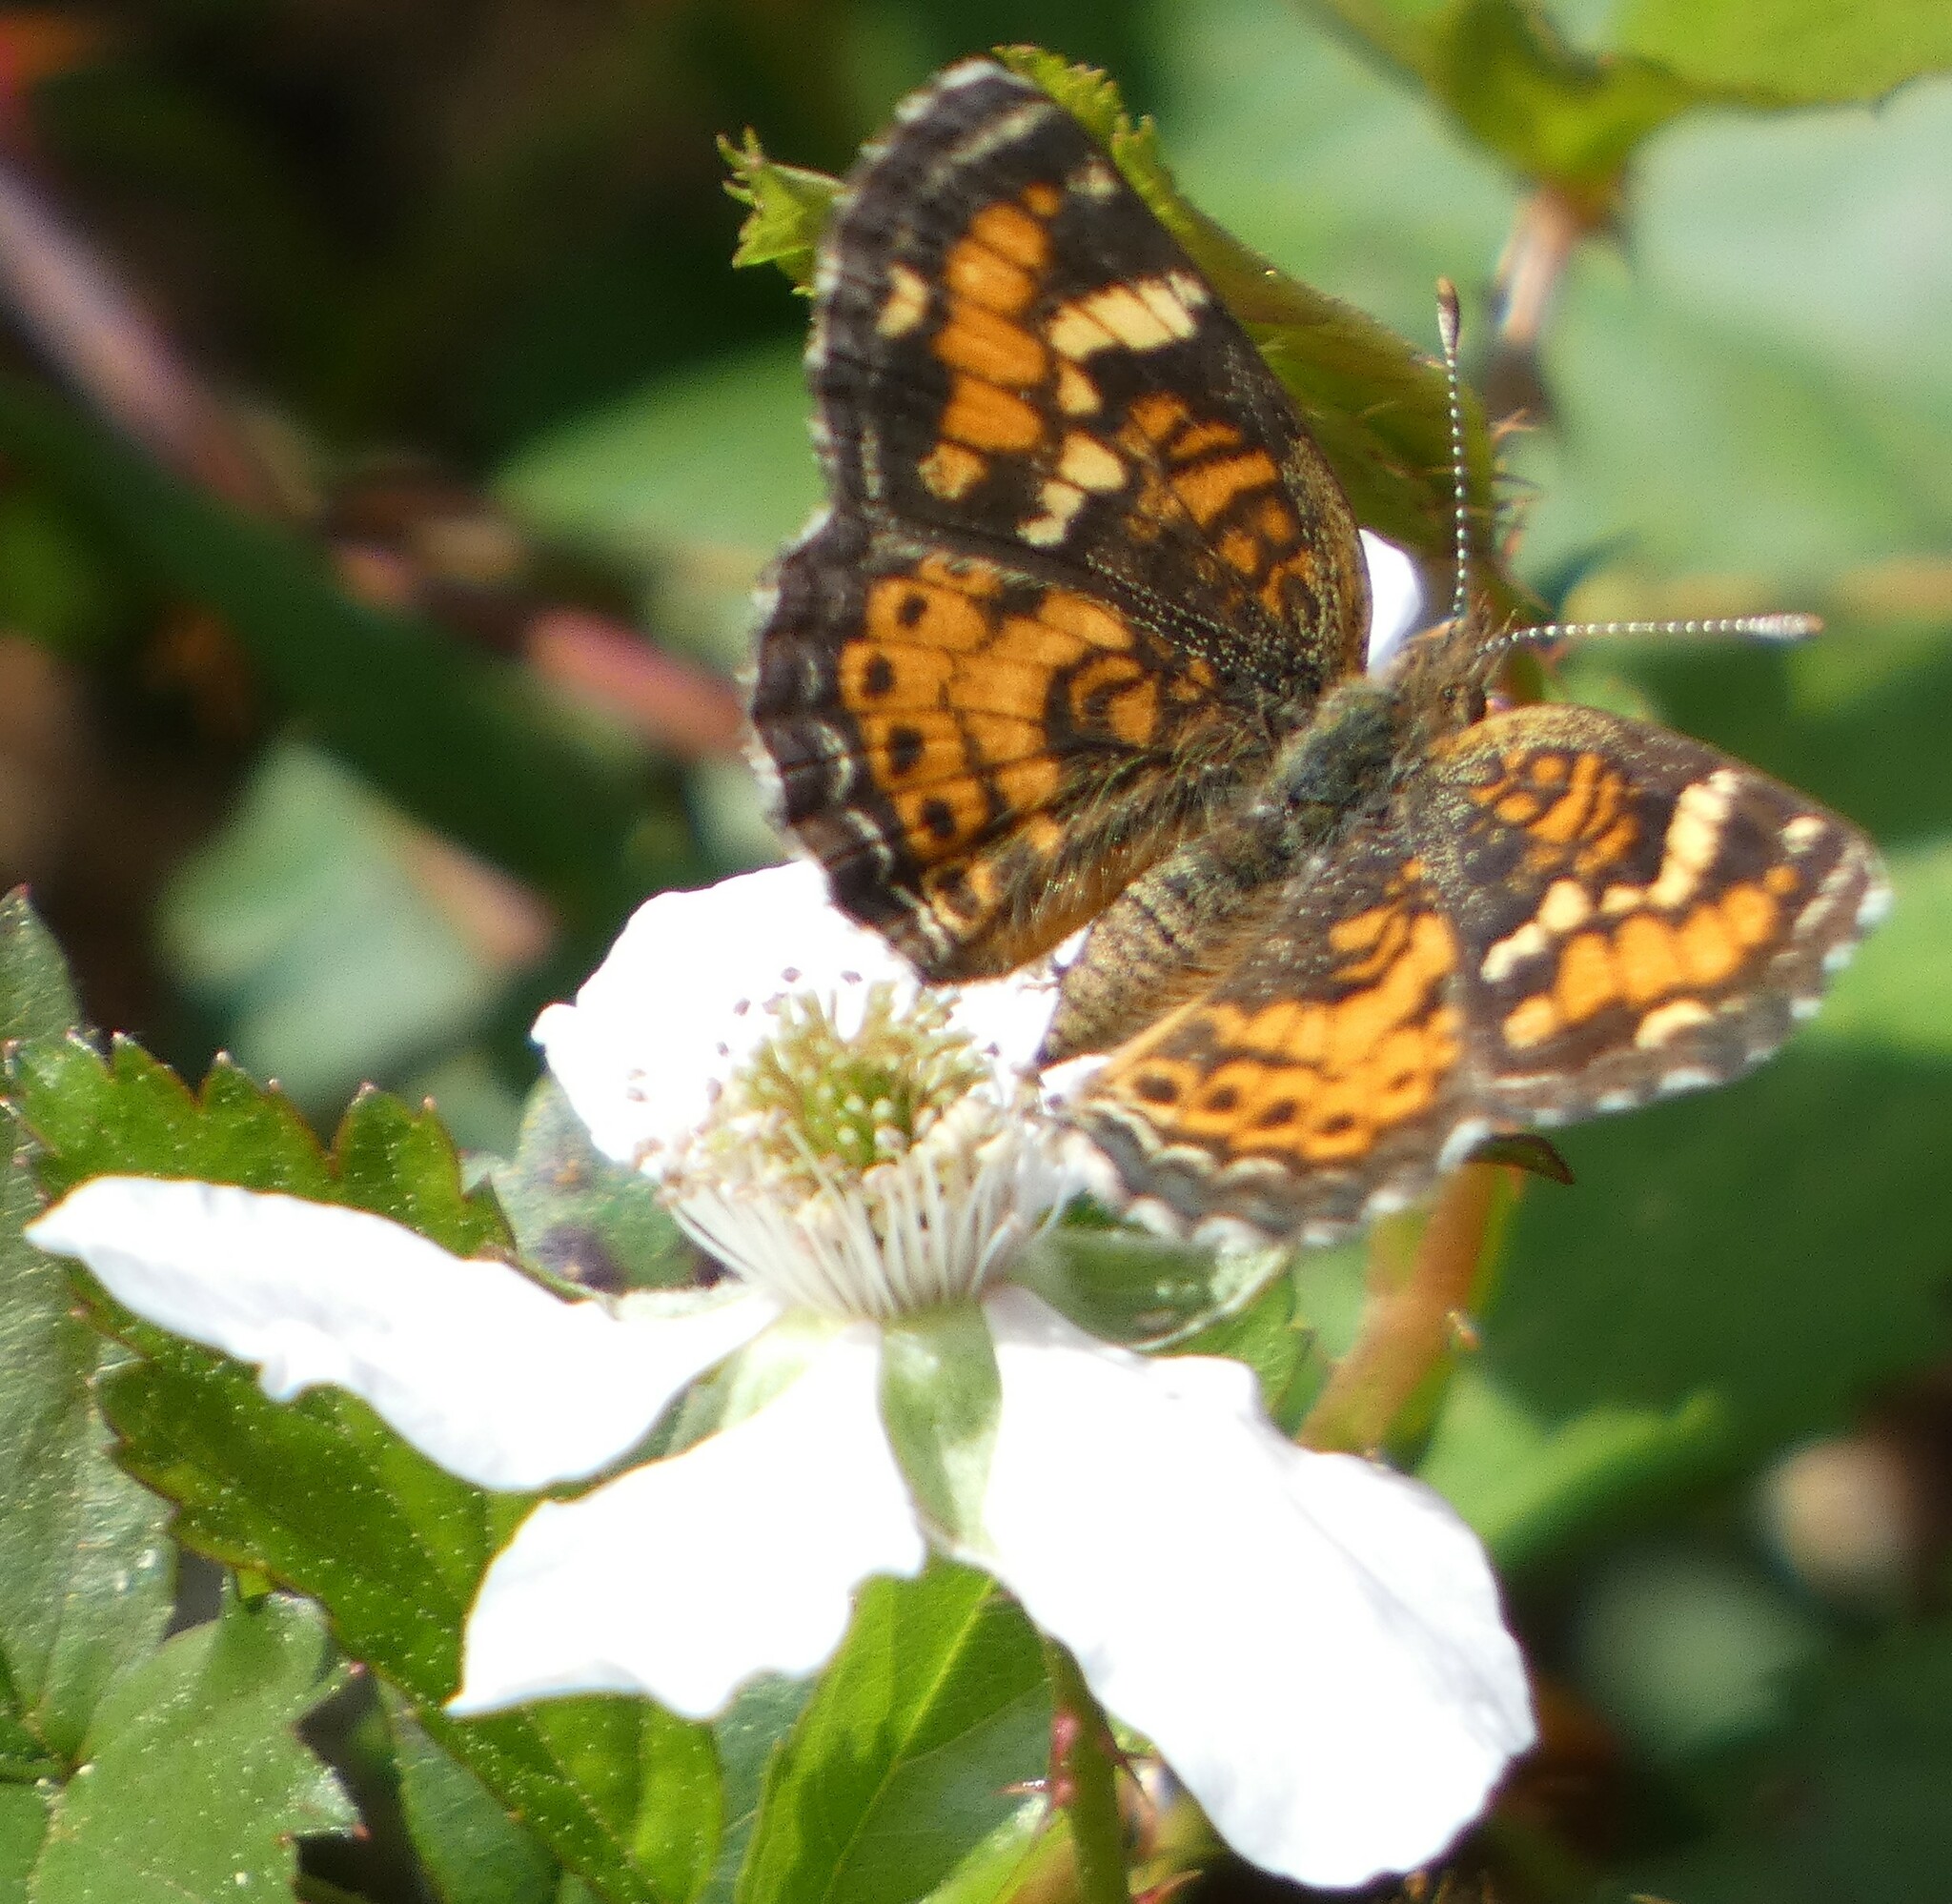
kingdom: Animalia
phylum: Arthropoda
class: Insecta
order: Lepidoptera
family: Nymphalidae
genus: Phyciodes
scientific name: Phyciodes phaon
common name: Phaon crescent
